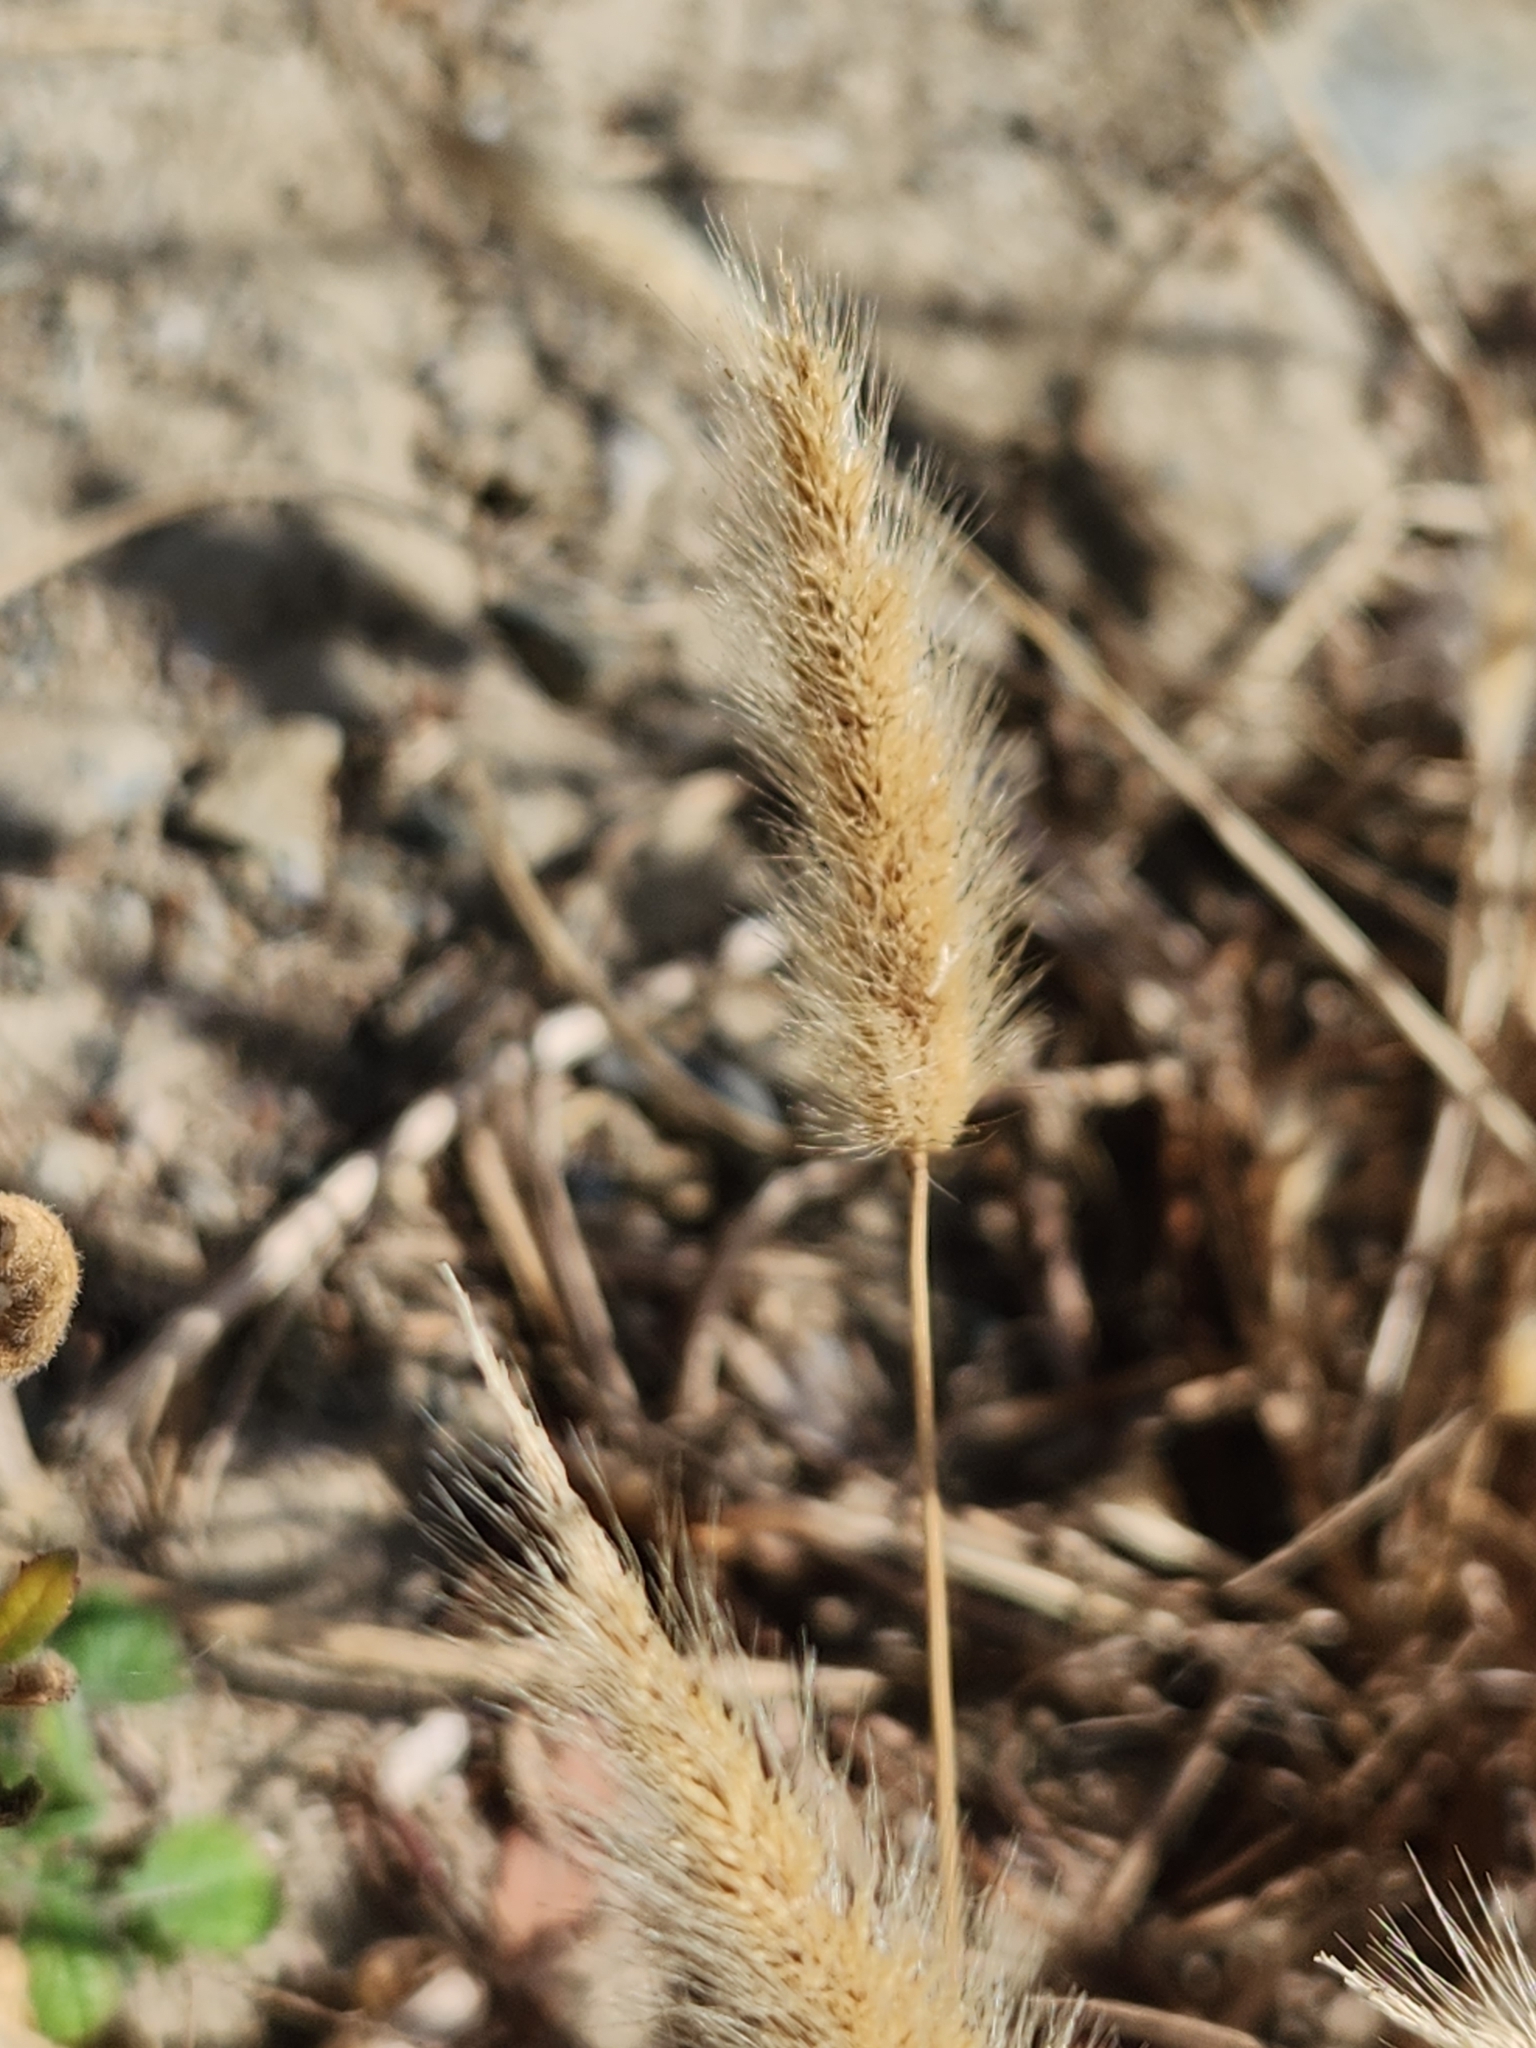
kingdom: Plantae
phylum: Tracheophyta
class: Liliopsida
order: Poales
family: Poaceae
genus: Polypogon
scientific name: Polypogon monspeliensis
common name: Annual rabbitsfoot grass
